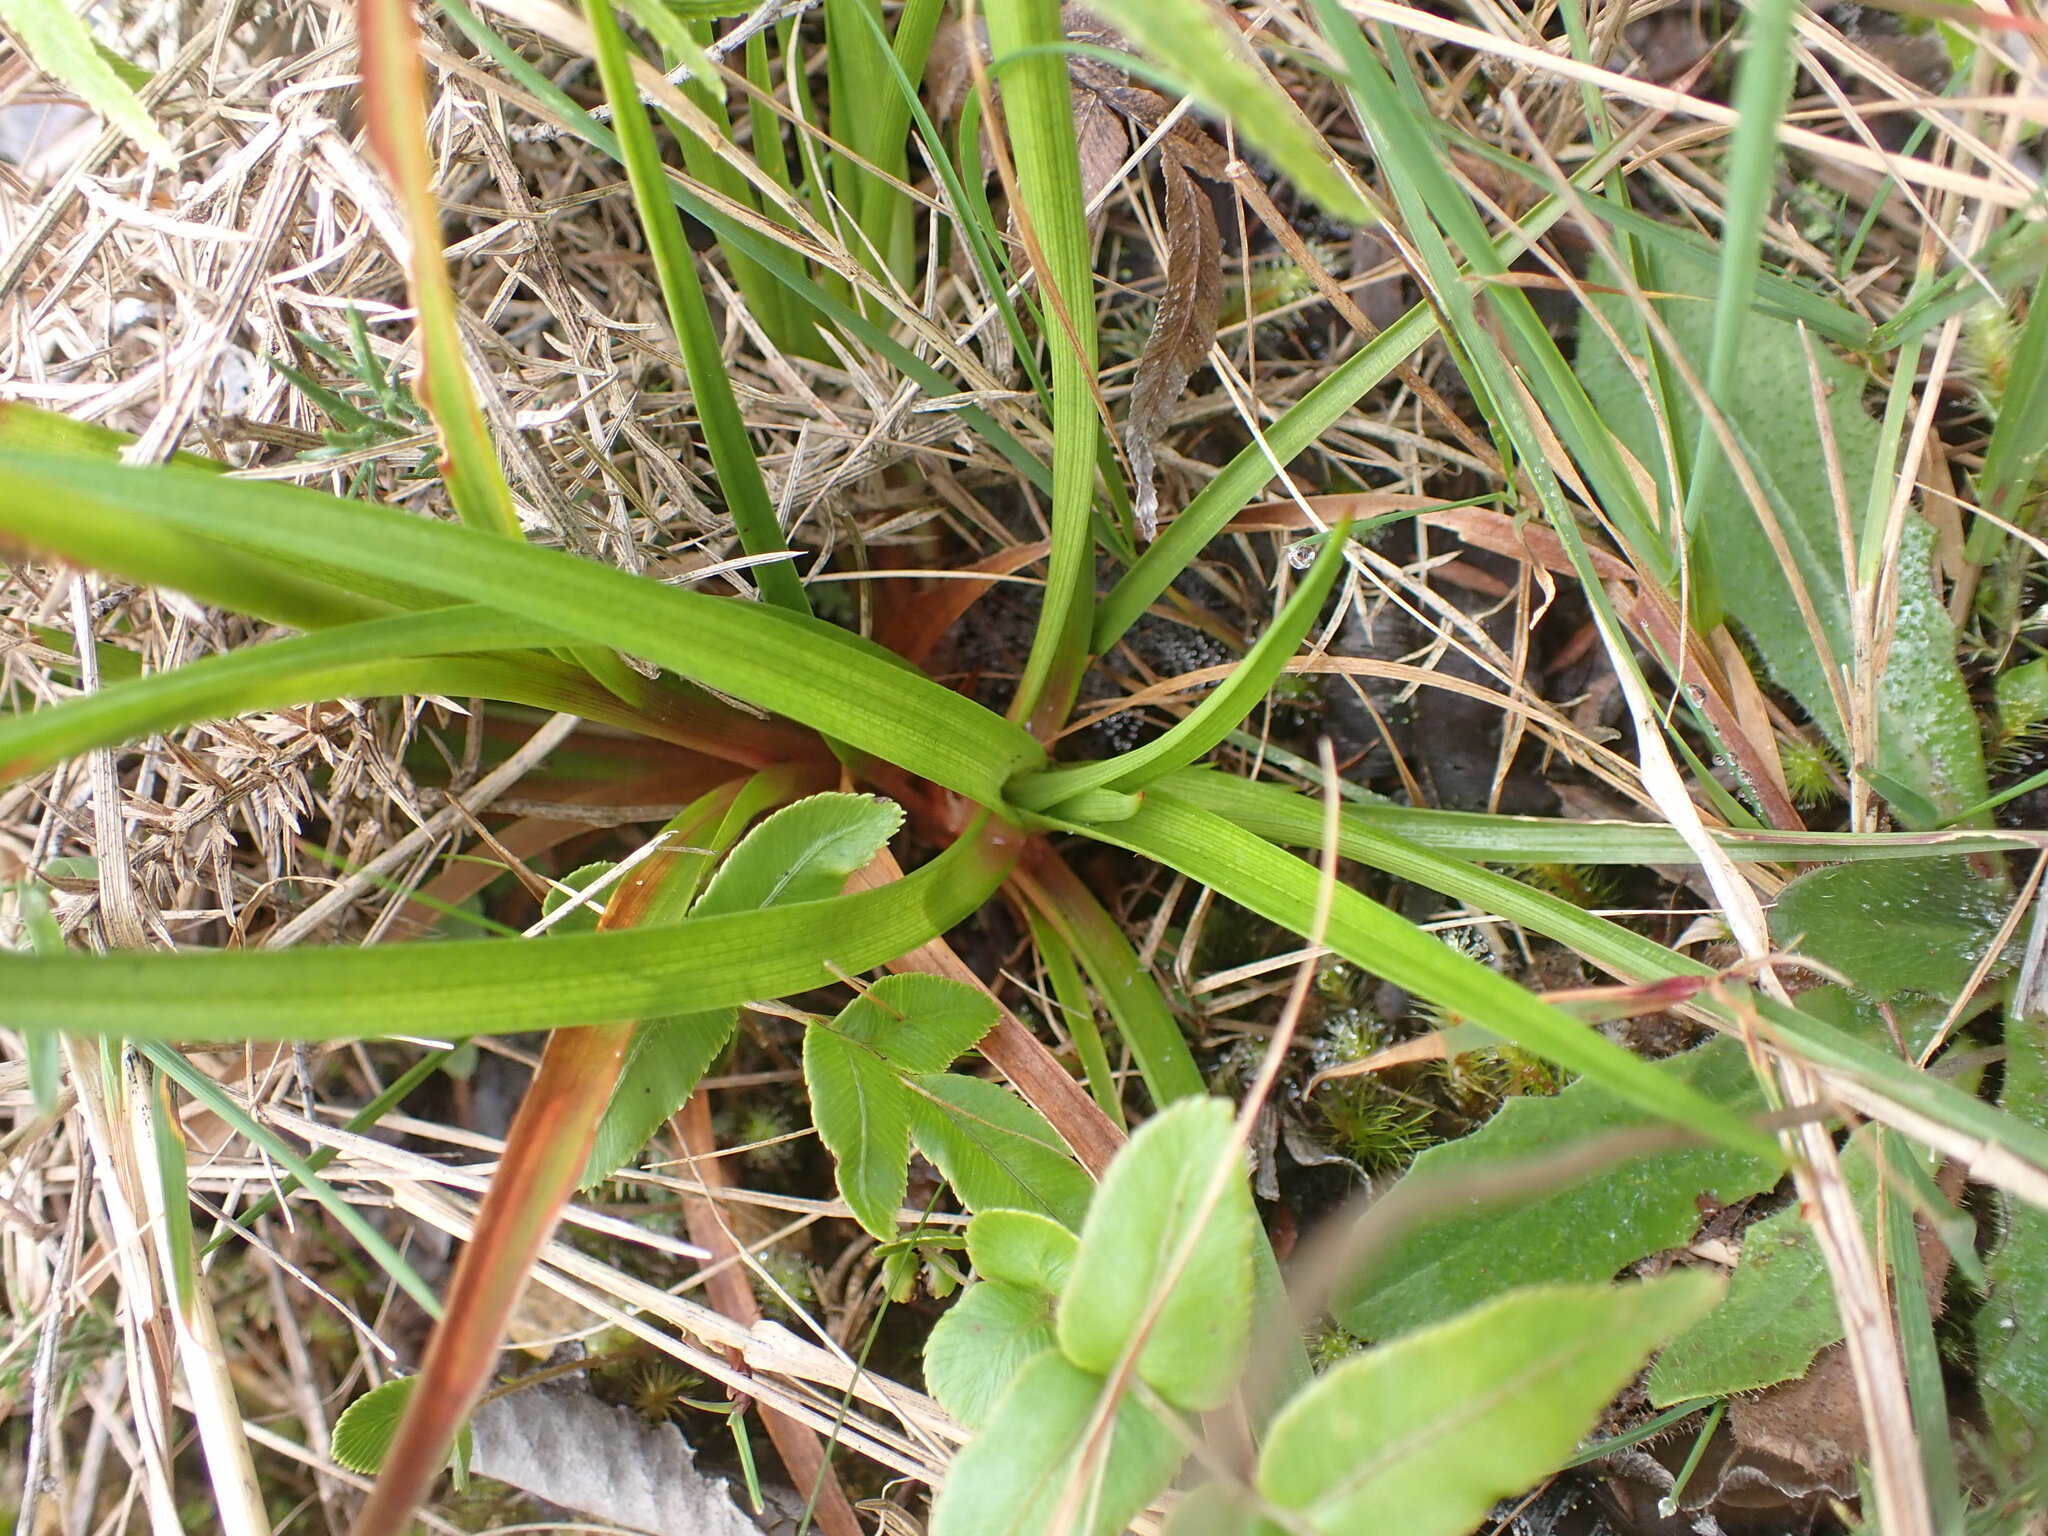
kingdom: Plantae
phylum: Tracheophyta
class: Liliopsida
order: Poales
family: Juncaceae
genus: Juncus
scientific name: Juncus planifolius
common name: Broadleaf rush
